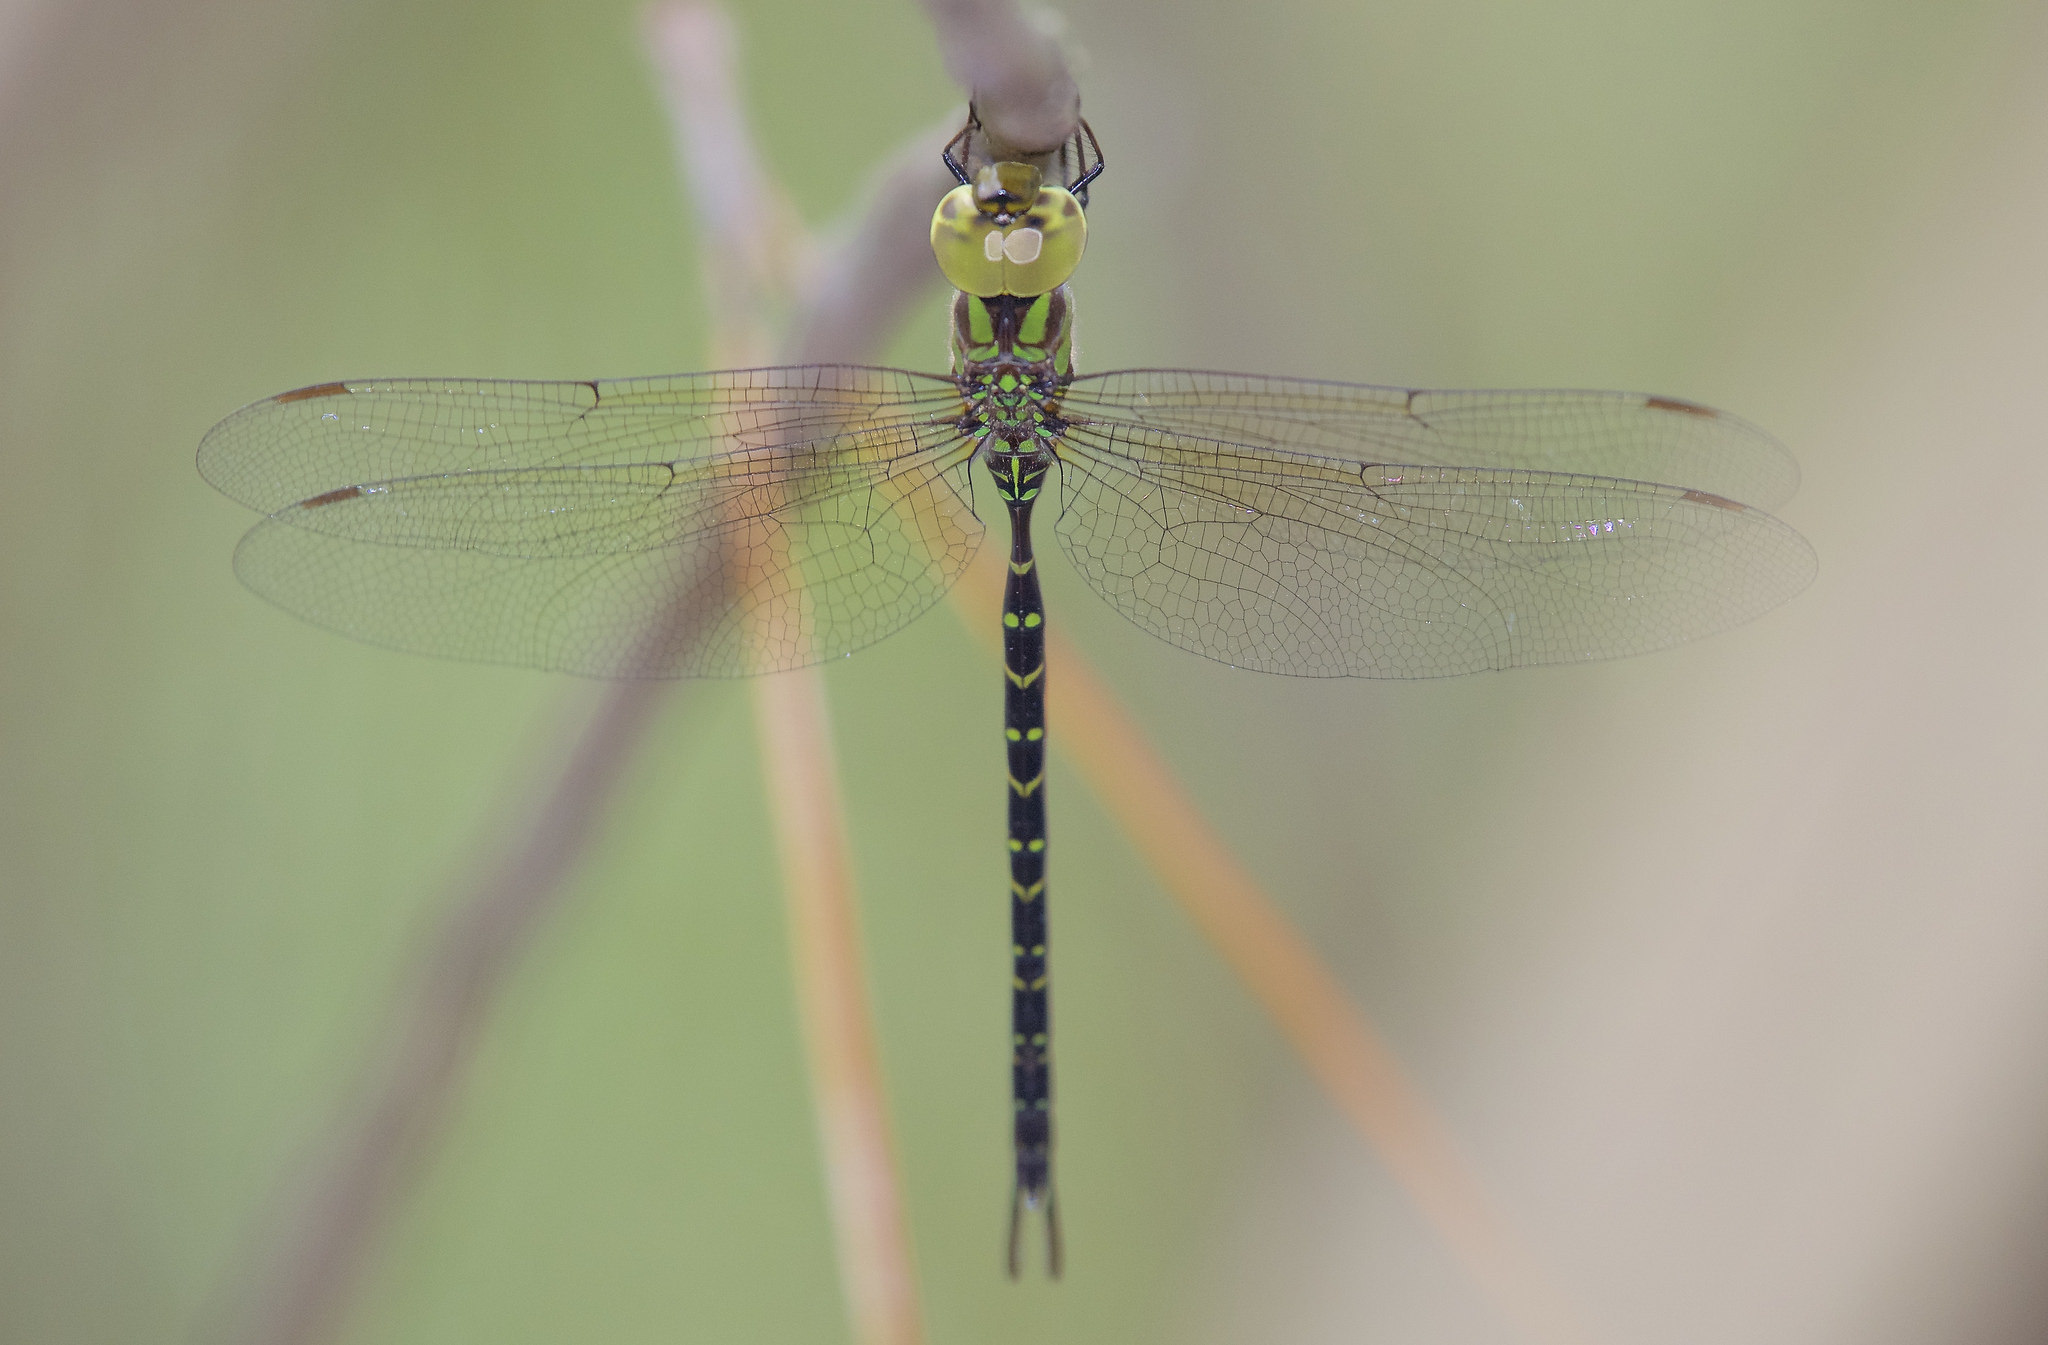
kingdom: Animalia
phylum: Arthropoda
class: Insecta
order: Odonata
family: Aeshnidae
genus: Triacanthagyna
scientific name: Triacanthagyna trifida
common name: Phantom darner
